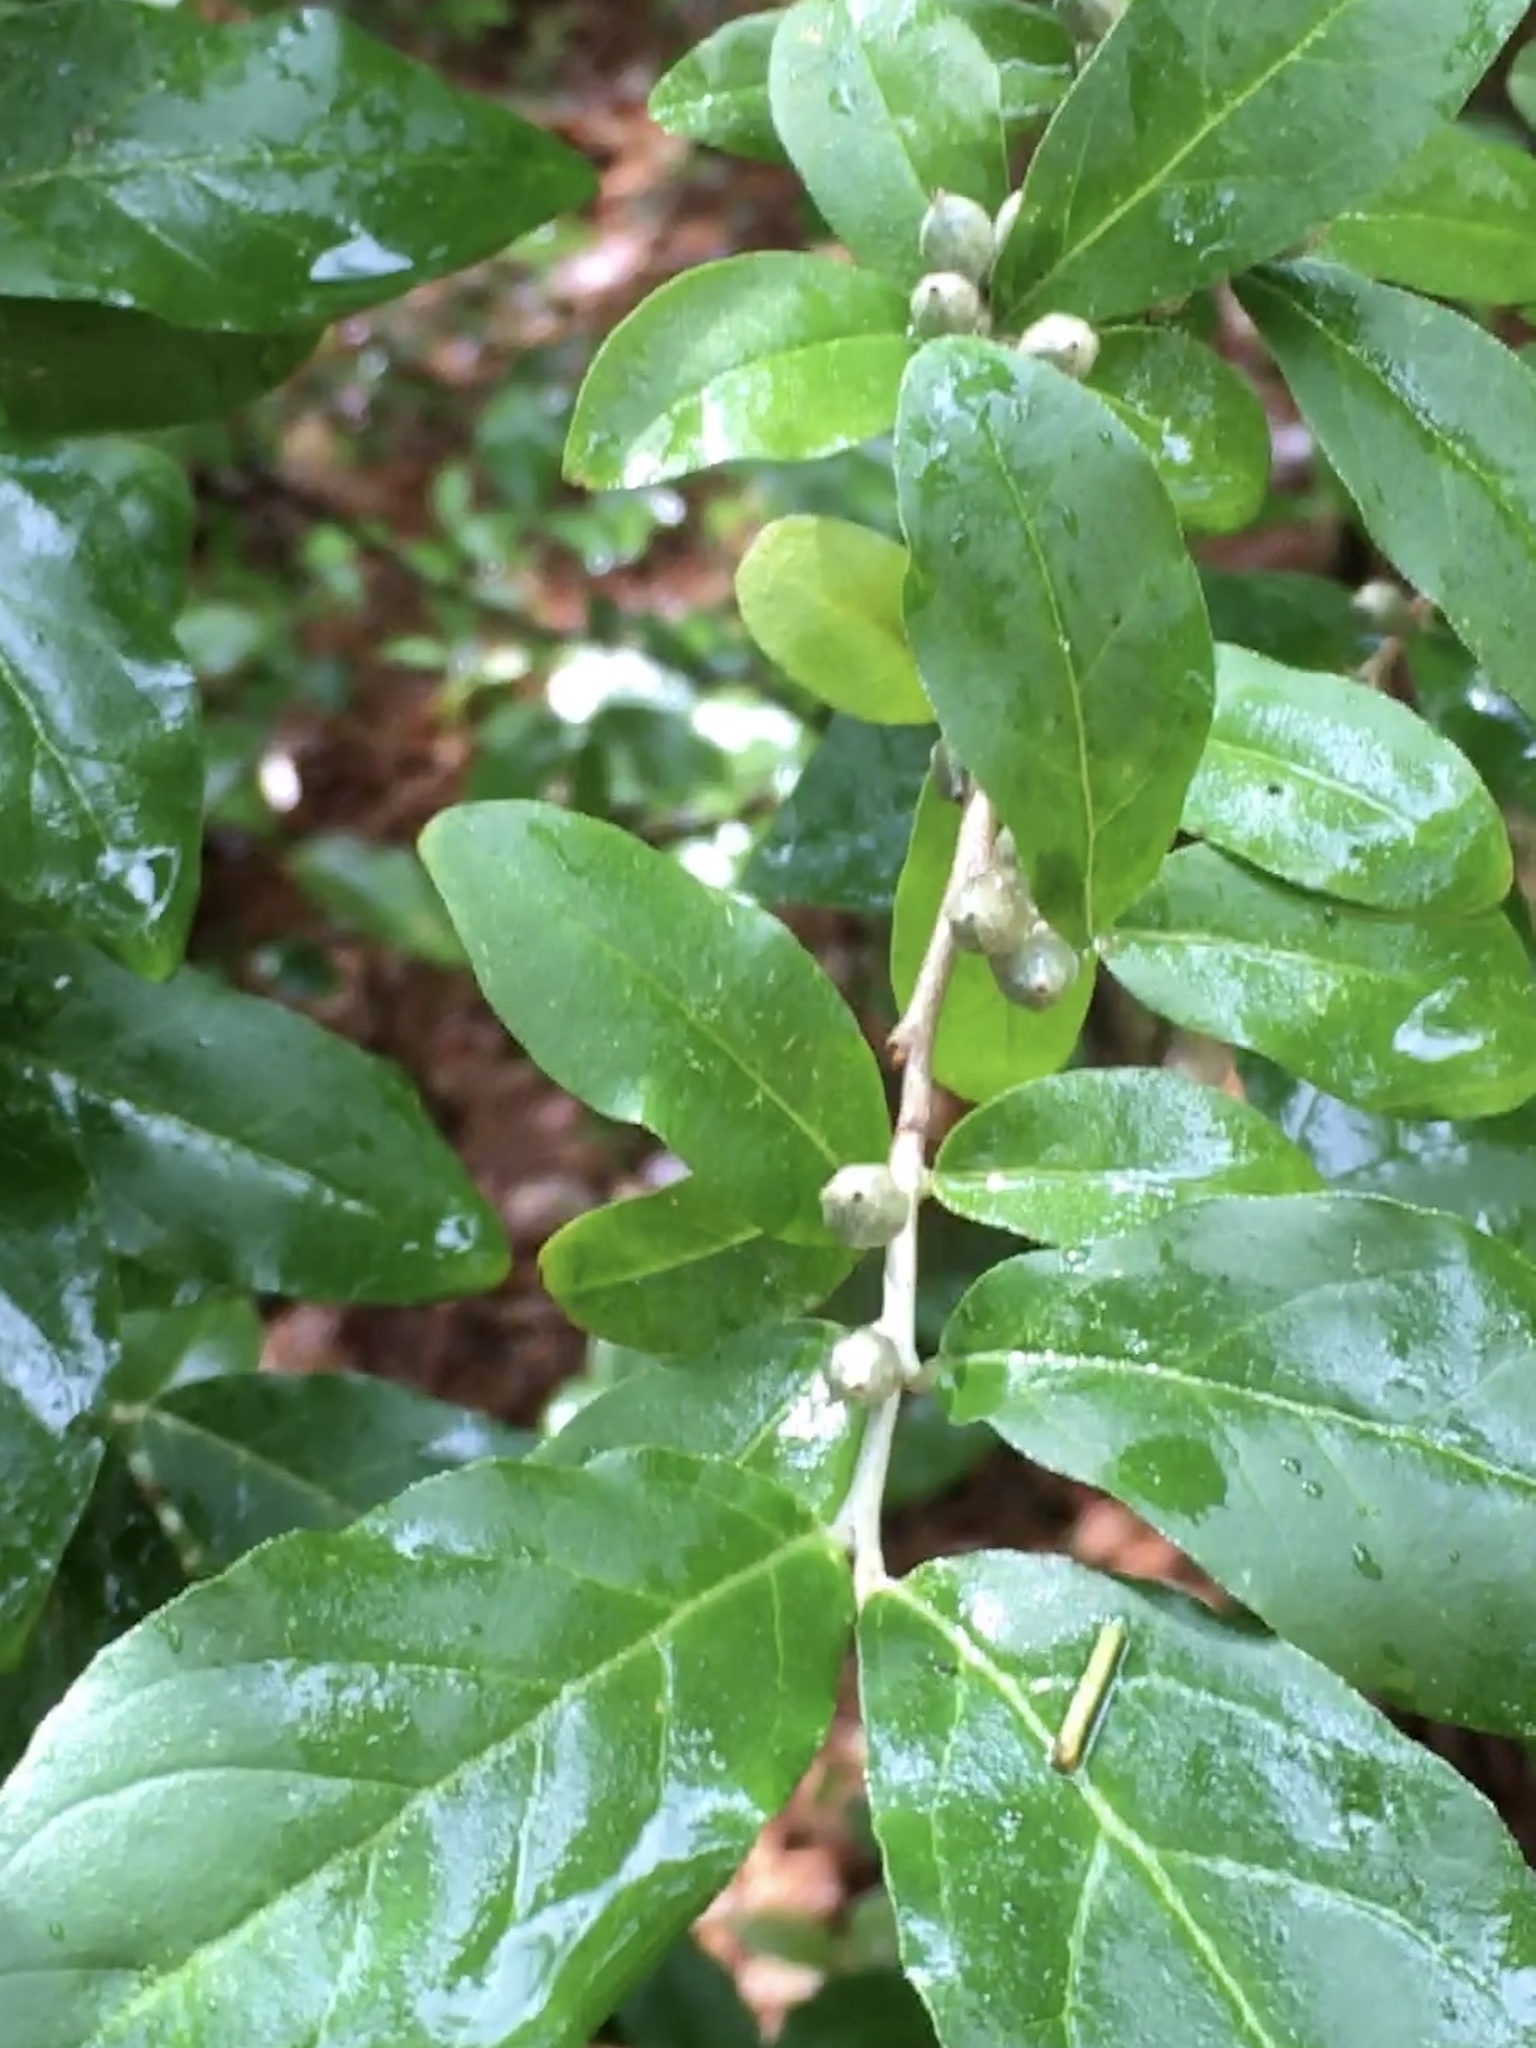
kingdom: Plantae
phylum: Tracheophyta
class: Magnoliopsida
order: Rosales
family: Elaeagnaceae
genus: Elaeagnus
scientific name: Elaeagnus umbellata
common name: Autumn olive
